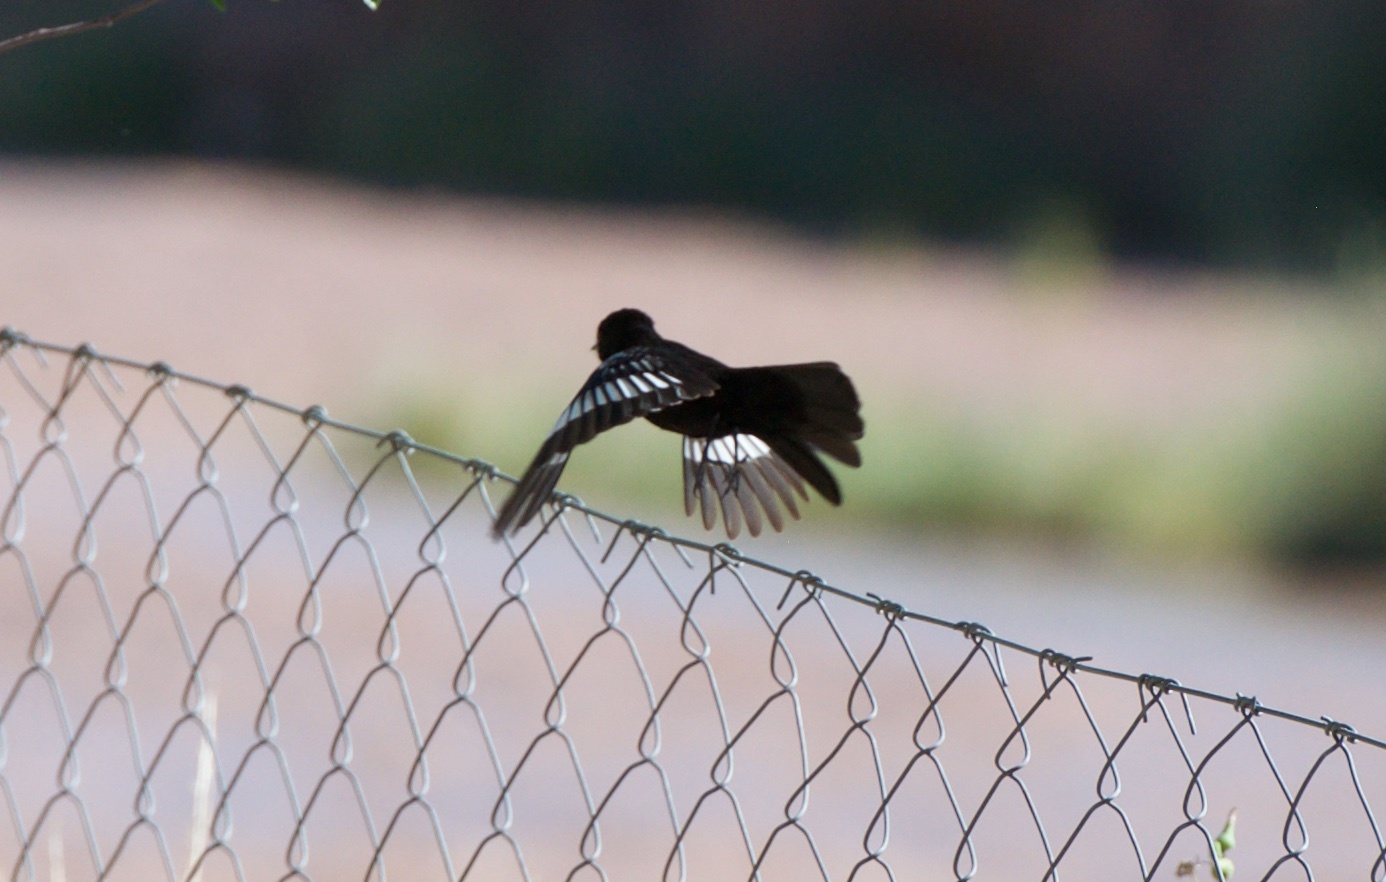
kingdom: Animalia
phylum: Chordata
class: Aves
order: Passeriformes
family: Tyrannidae
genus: Knipolegus
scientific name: Knipolegus aterrimus
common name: White-winged black tyrant
